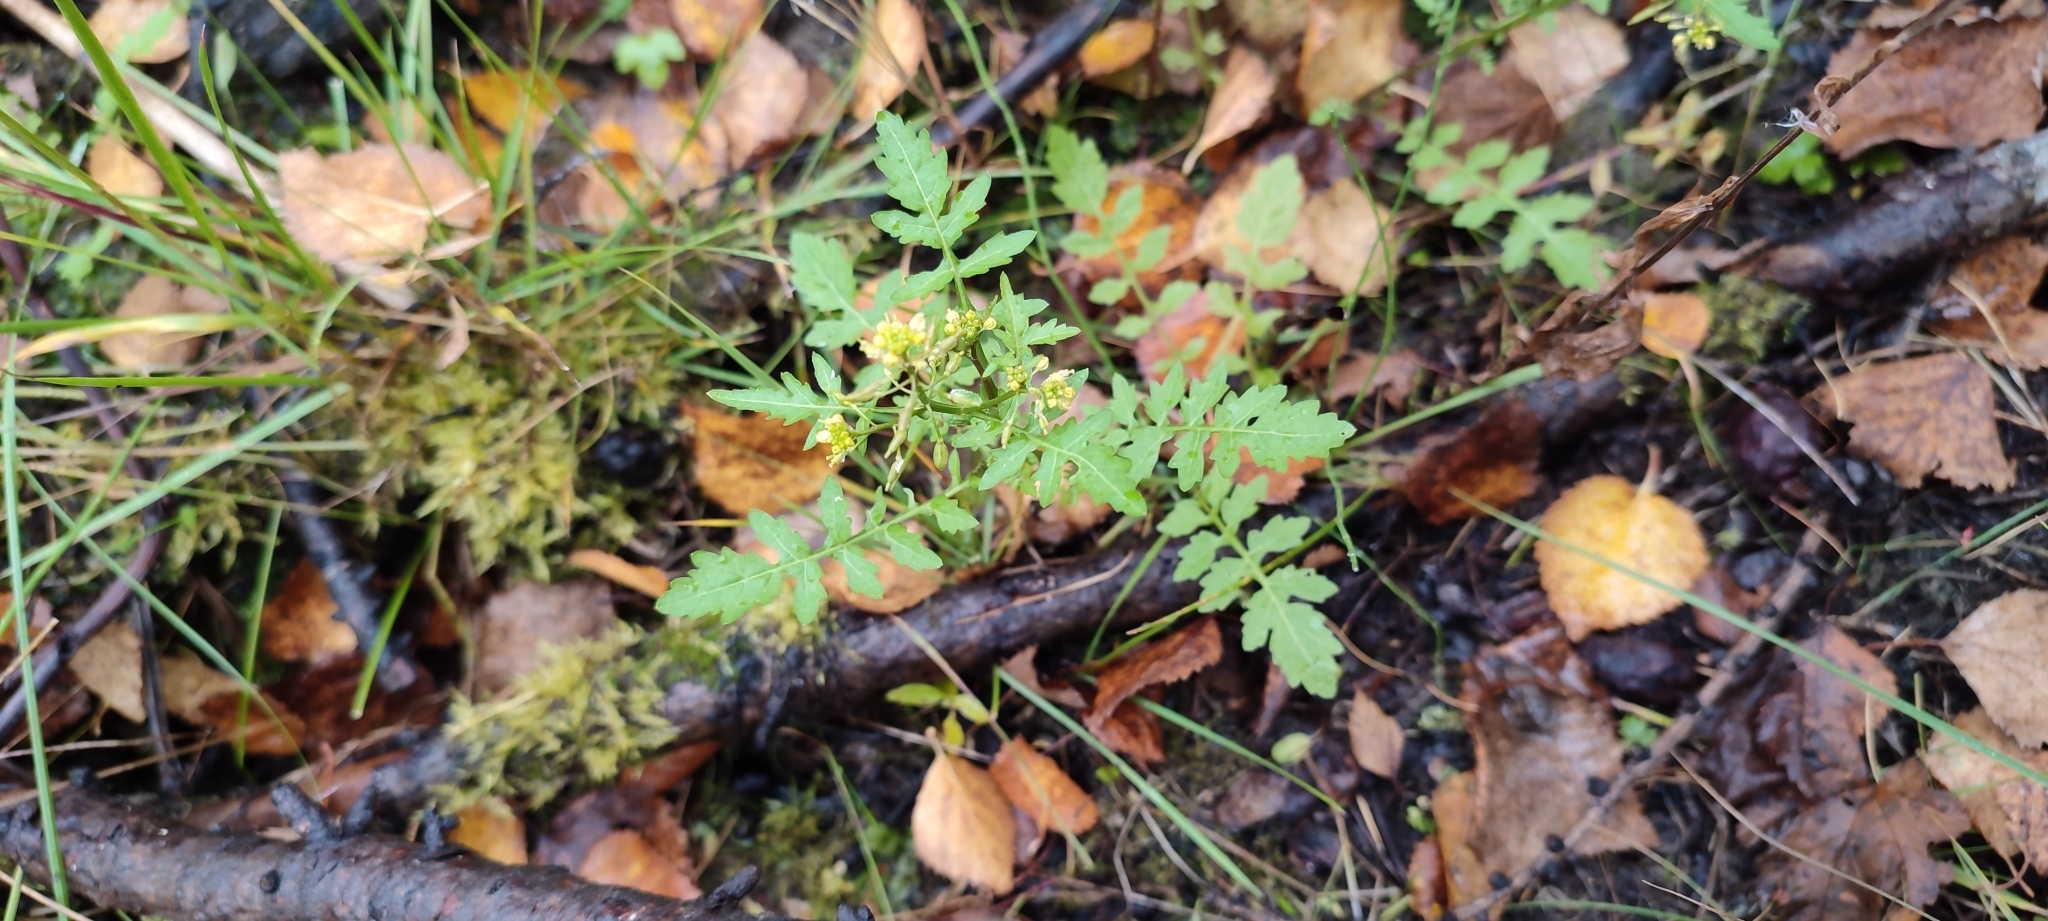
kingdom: Plantae
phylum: Tracheophyta
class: Magnoliopsida
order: Brassicales
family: Brassicaceae
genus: Rorippa
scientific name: Rorippa palustris
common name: Marsh yellow-cress
